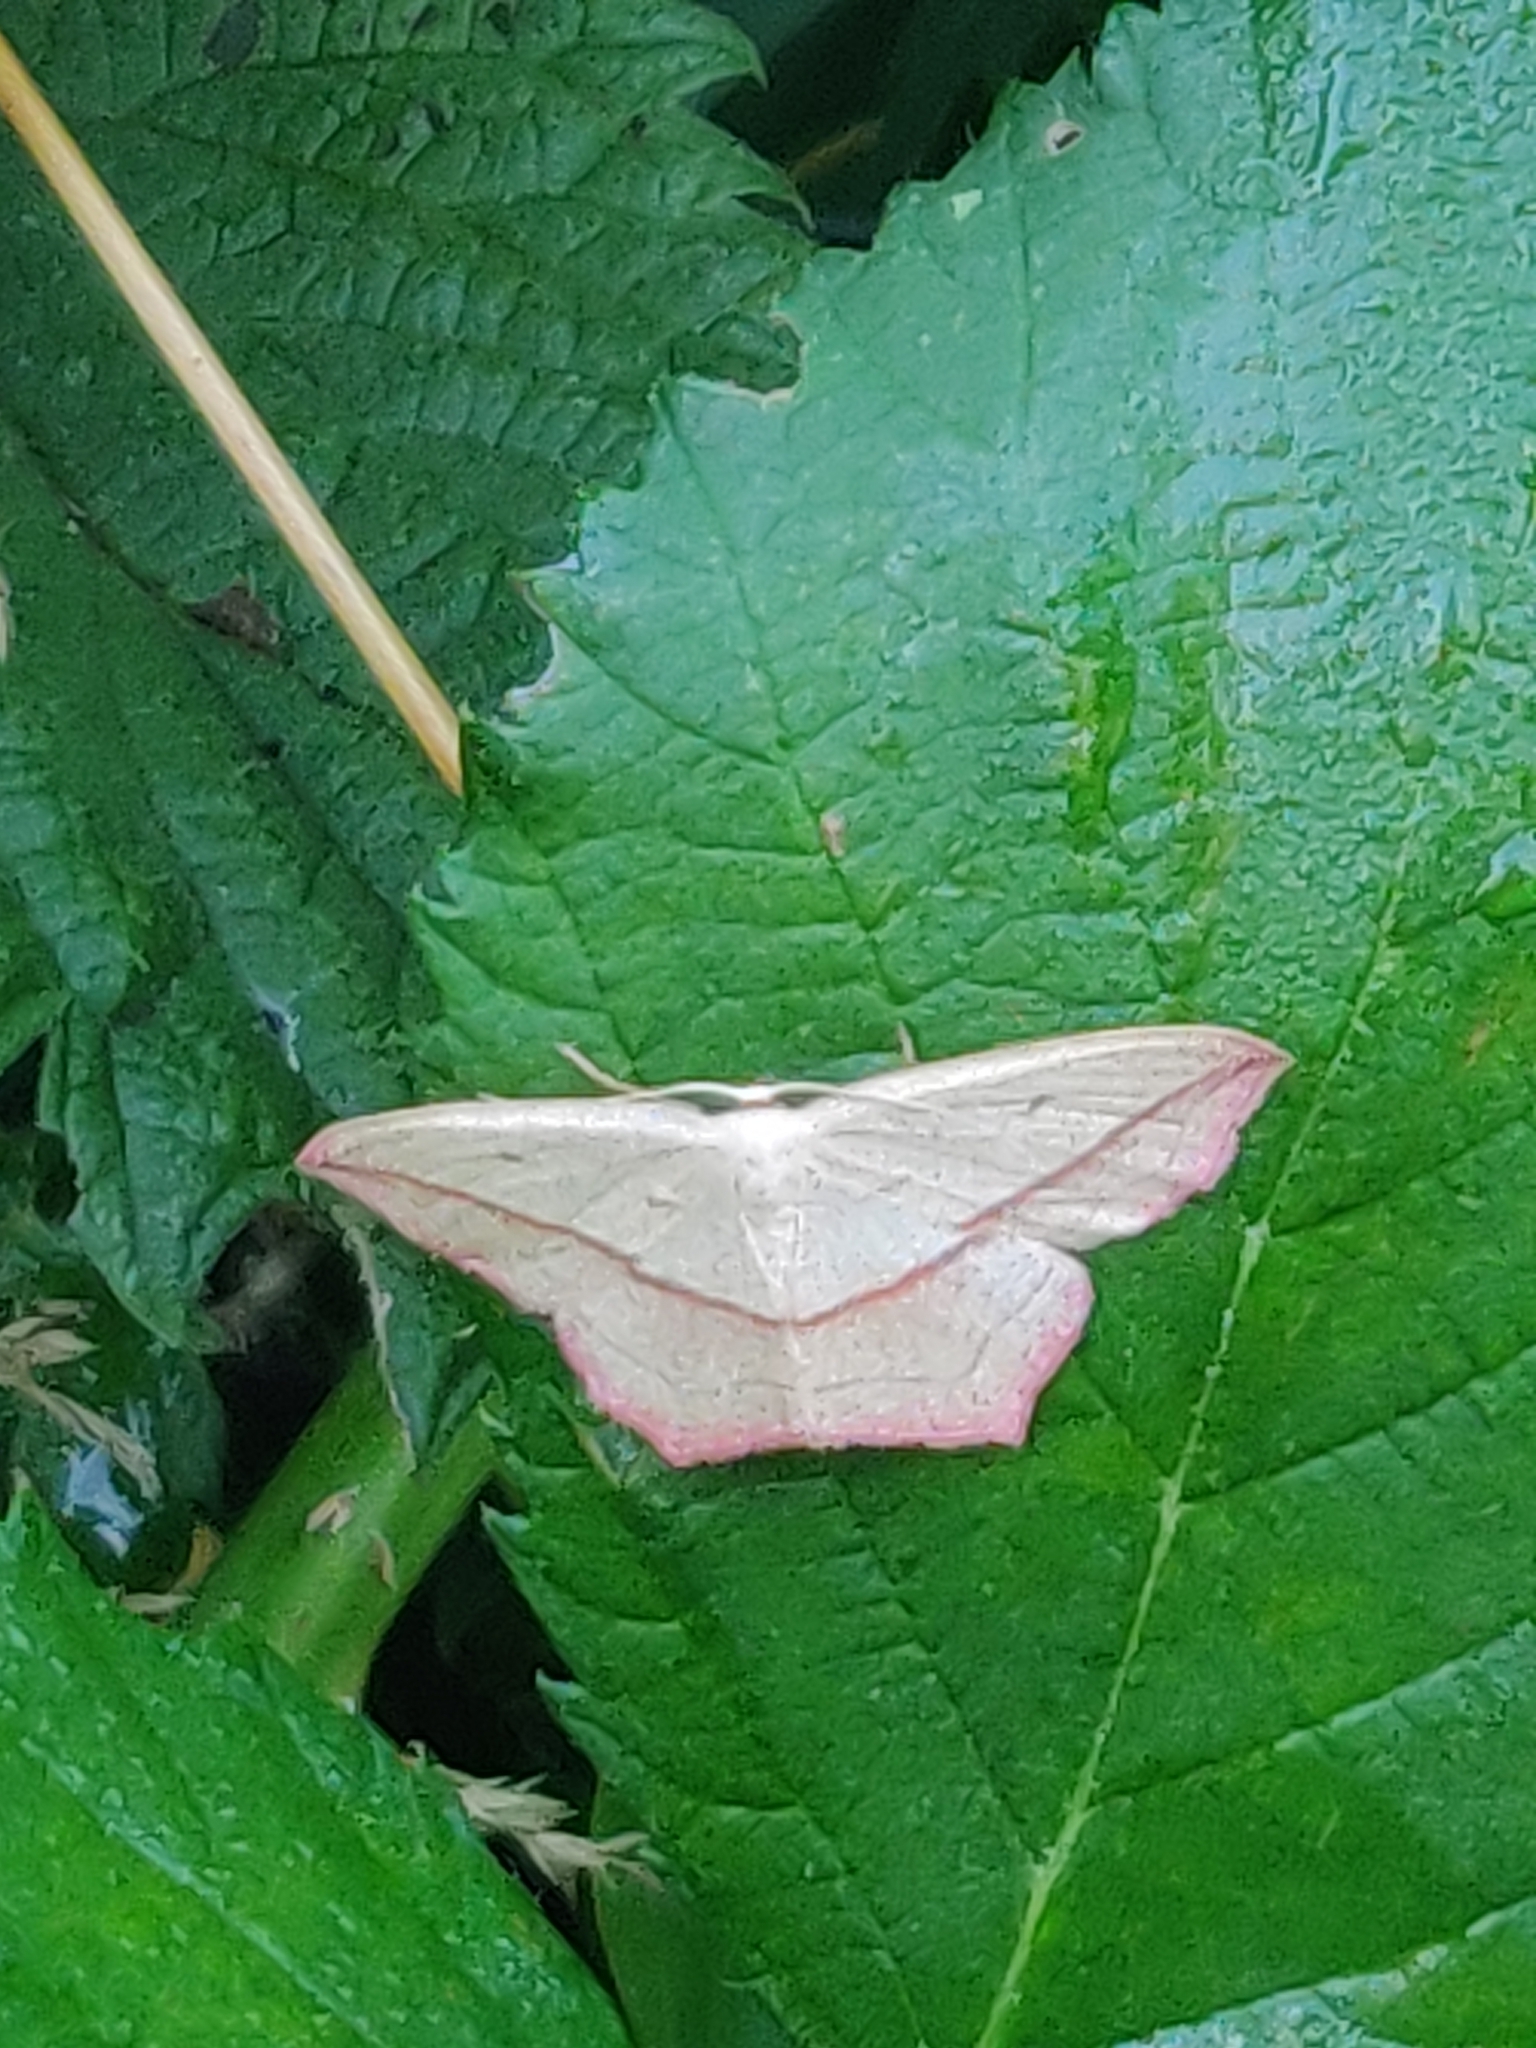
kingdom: Animalia
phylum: Arthropoda
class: Insecta
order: Lepidoptera
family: Geometridae
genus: Timandra
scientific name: Timandra comae
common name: Blood-vein
